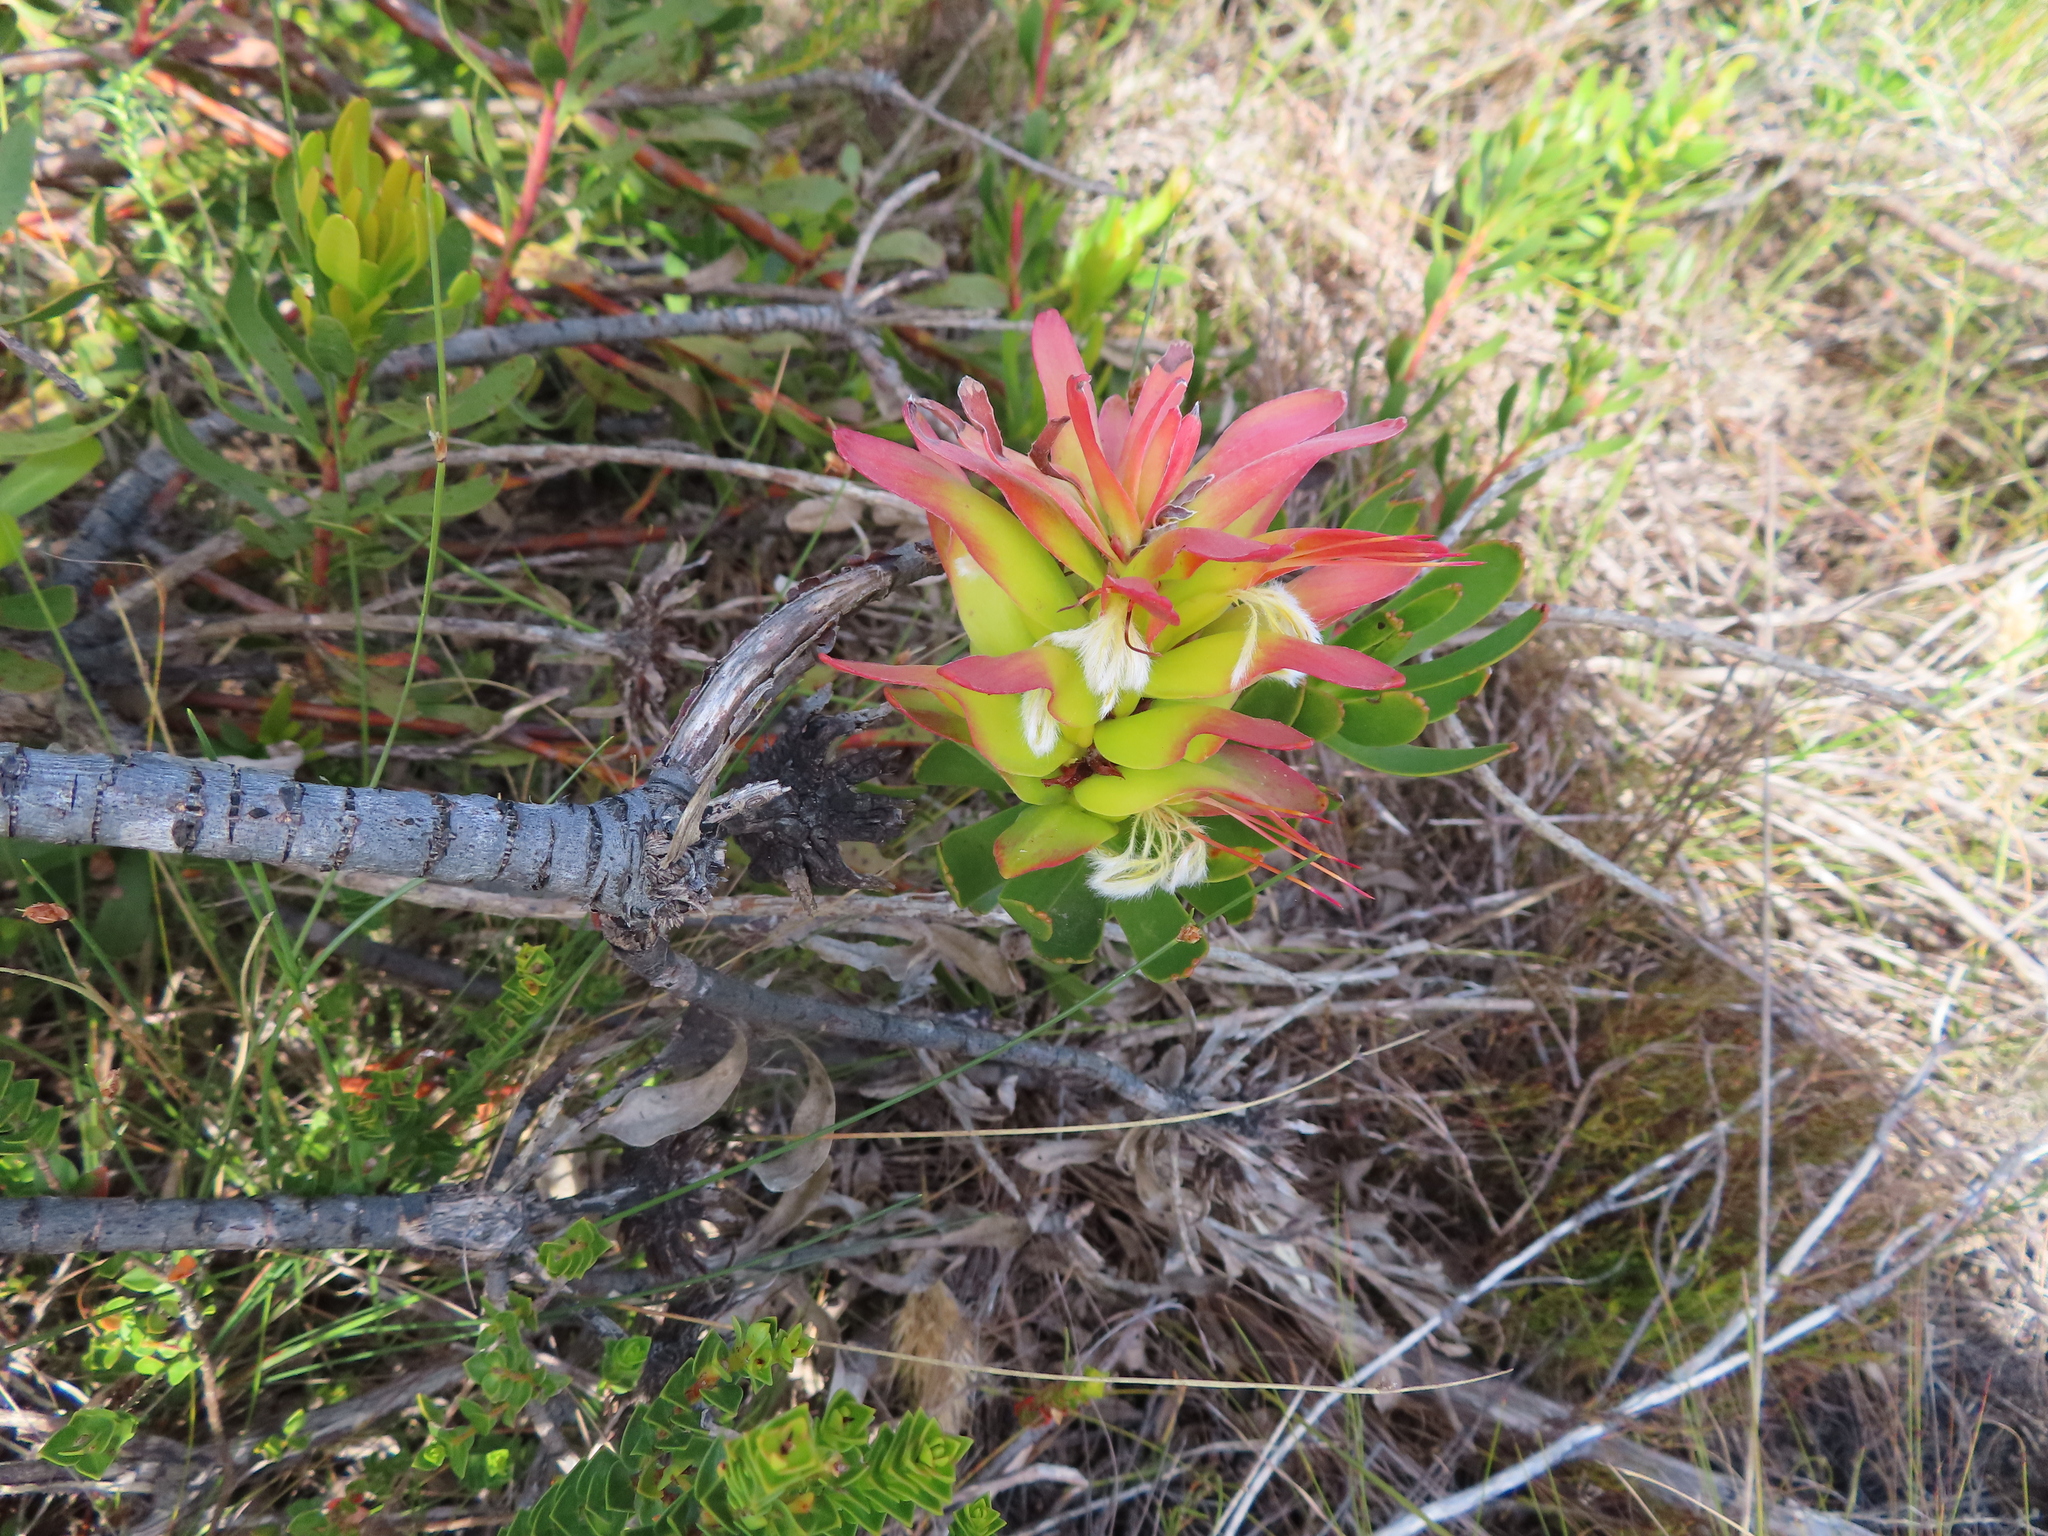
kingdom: Plantae
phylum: Tracheophyta
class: Magnoliopsida
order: Proteales
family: Proteaceae
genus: Mimetes
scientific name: Mimetes cucullatus
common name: Common pagoda
